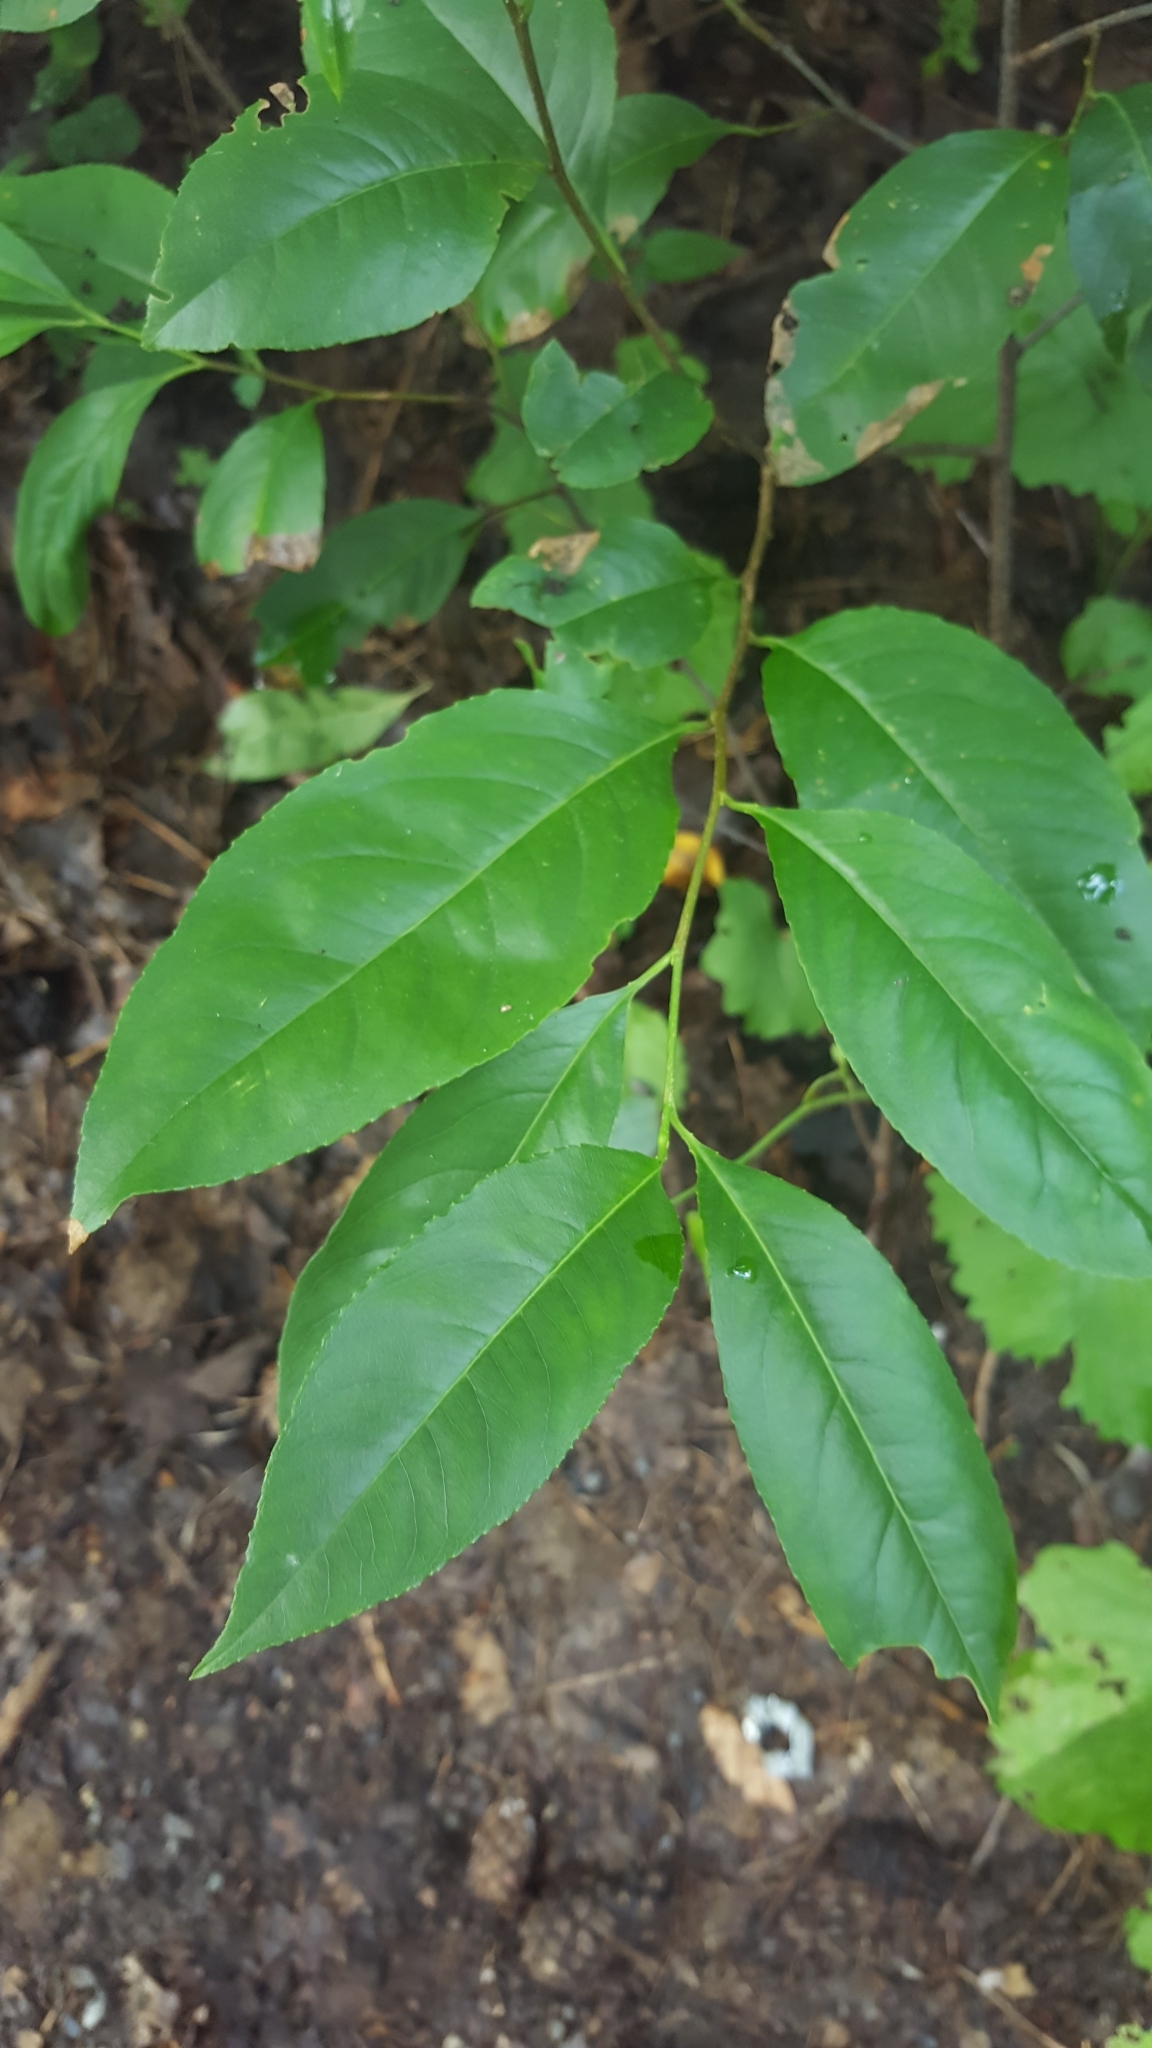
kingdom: Plantae
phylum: Tracheophyta
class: Magnoliopsida
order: Rosales
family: Rosaceae
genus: Prunus
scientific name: Prunus serotina
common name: Black cherry
